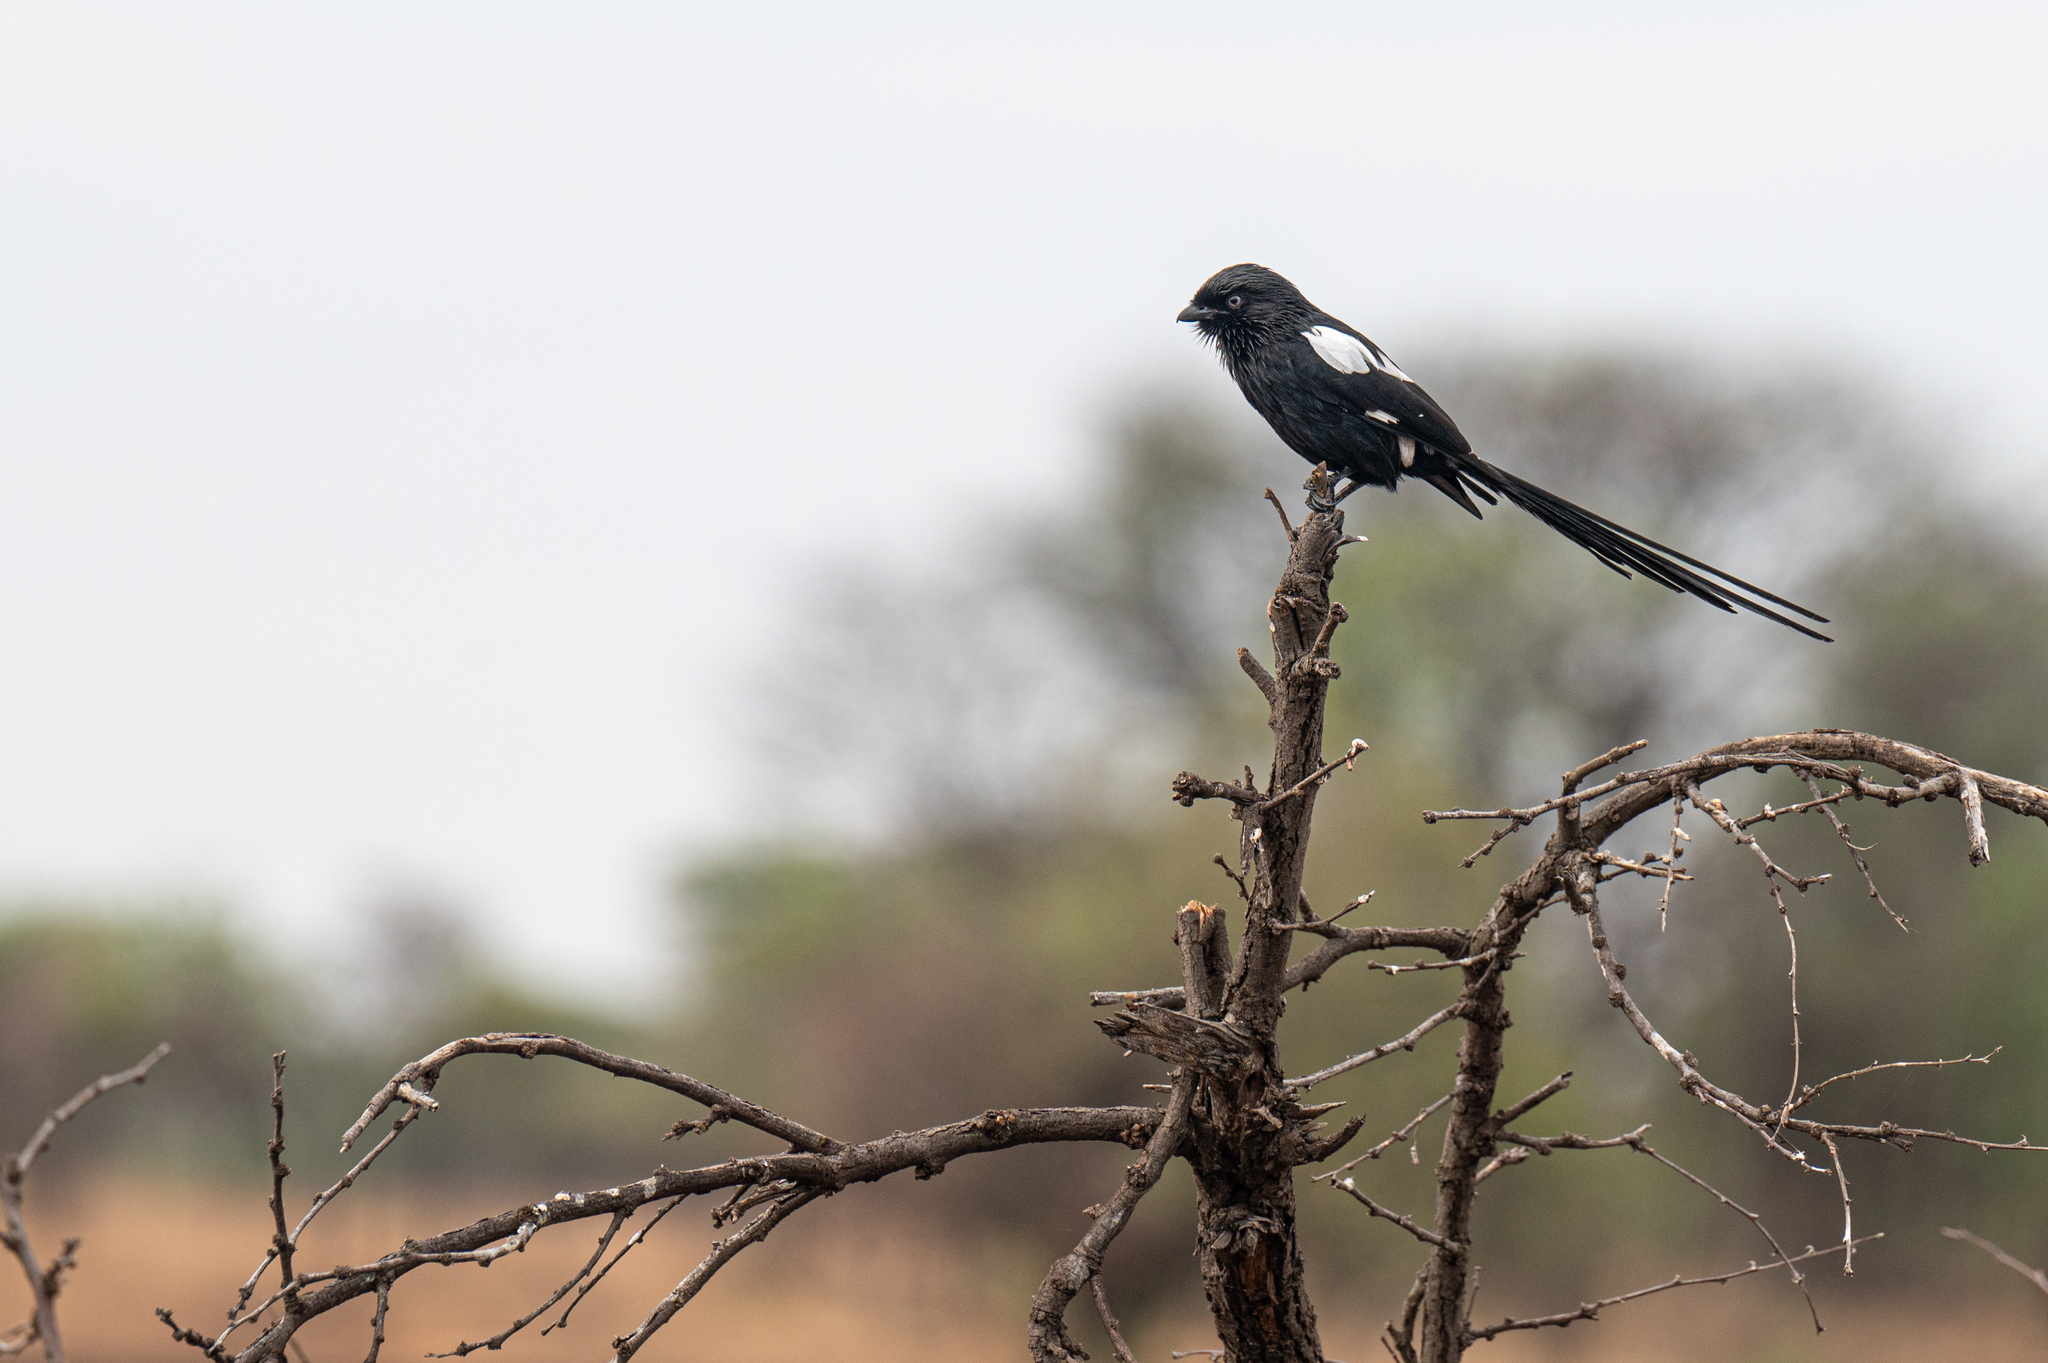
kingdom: Animalia
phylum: Chordata
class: Aves
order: Passeriformes
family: Laniidae
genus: Urolestes
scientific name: Urolestes melanoleucus
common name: Magpie shrike
